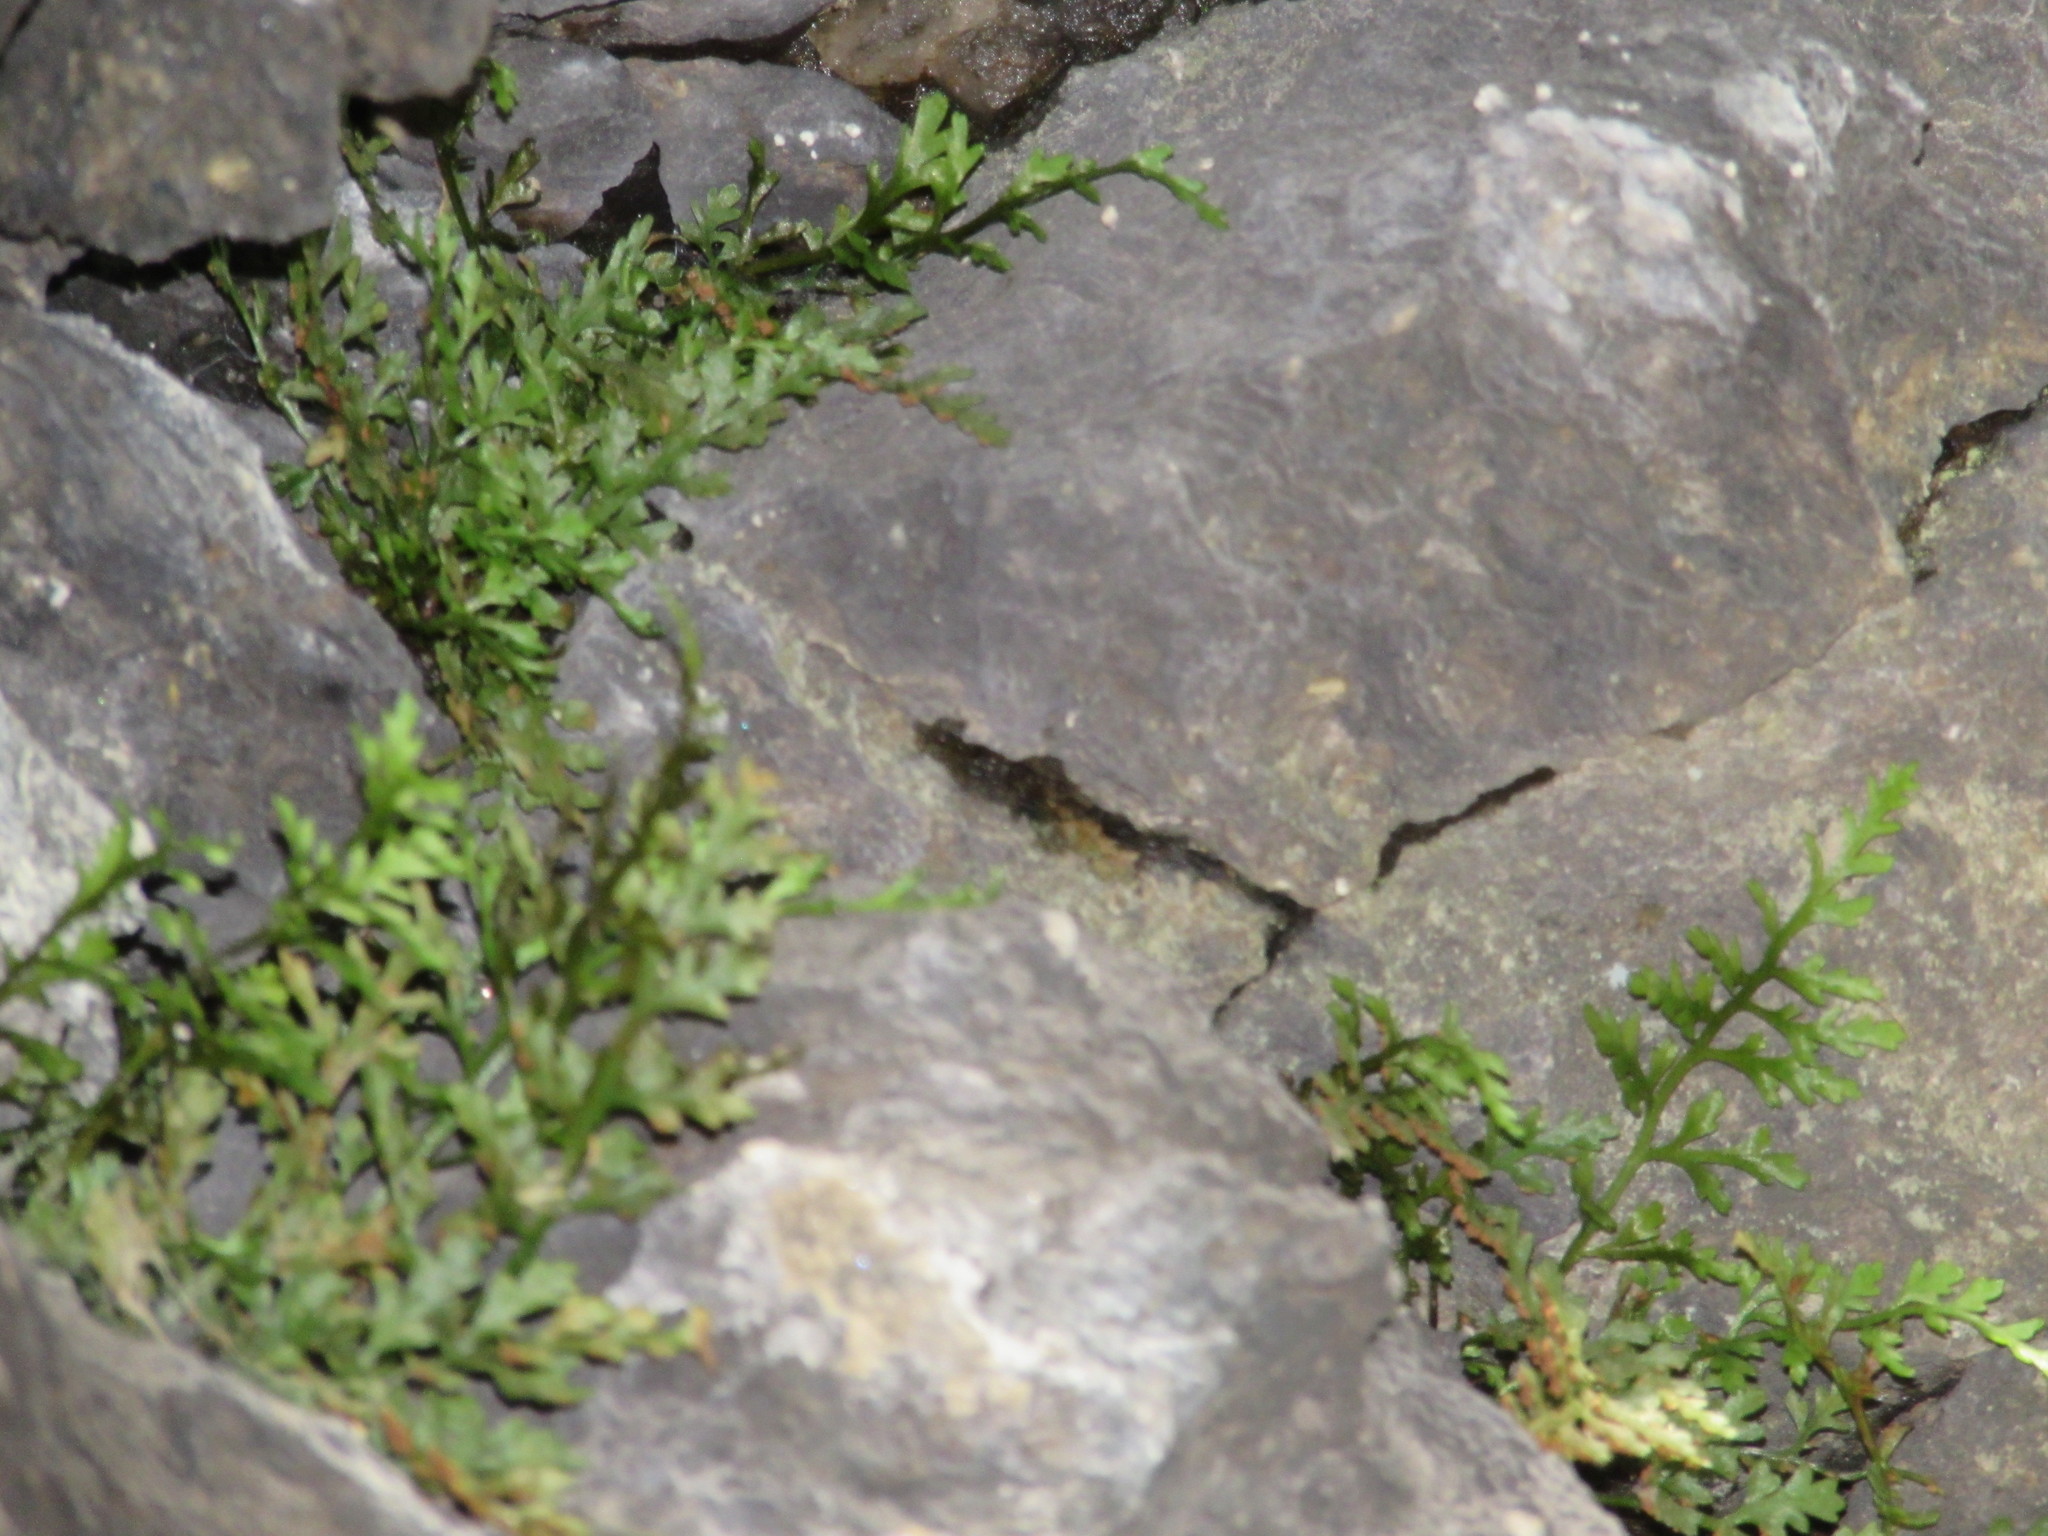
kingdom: Plantae
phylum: Tracheophyta
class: Polypodiopsida
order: Polypodiales
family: Aspleniaceae
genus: Asplenium
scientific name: Asplenium montanum
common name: Mountain spleenwort
